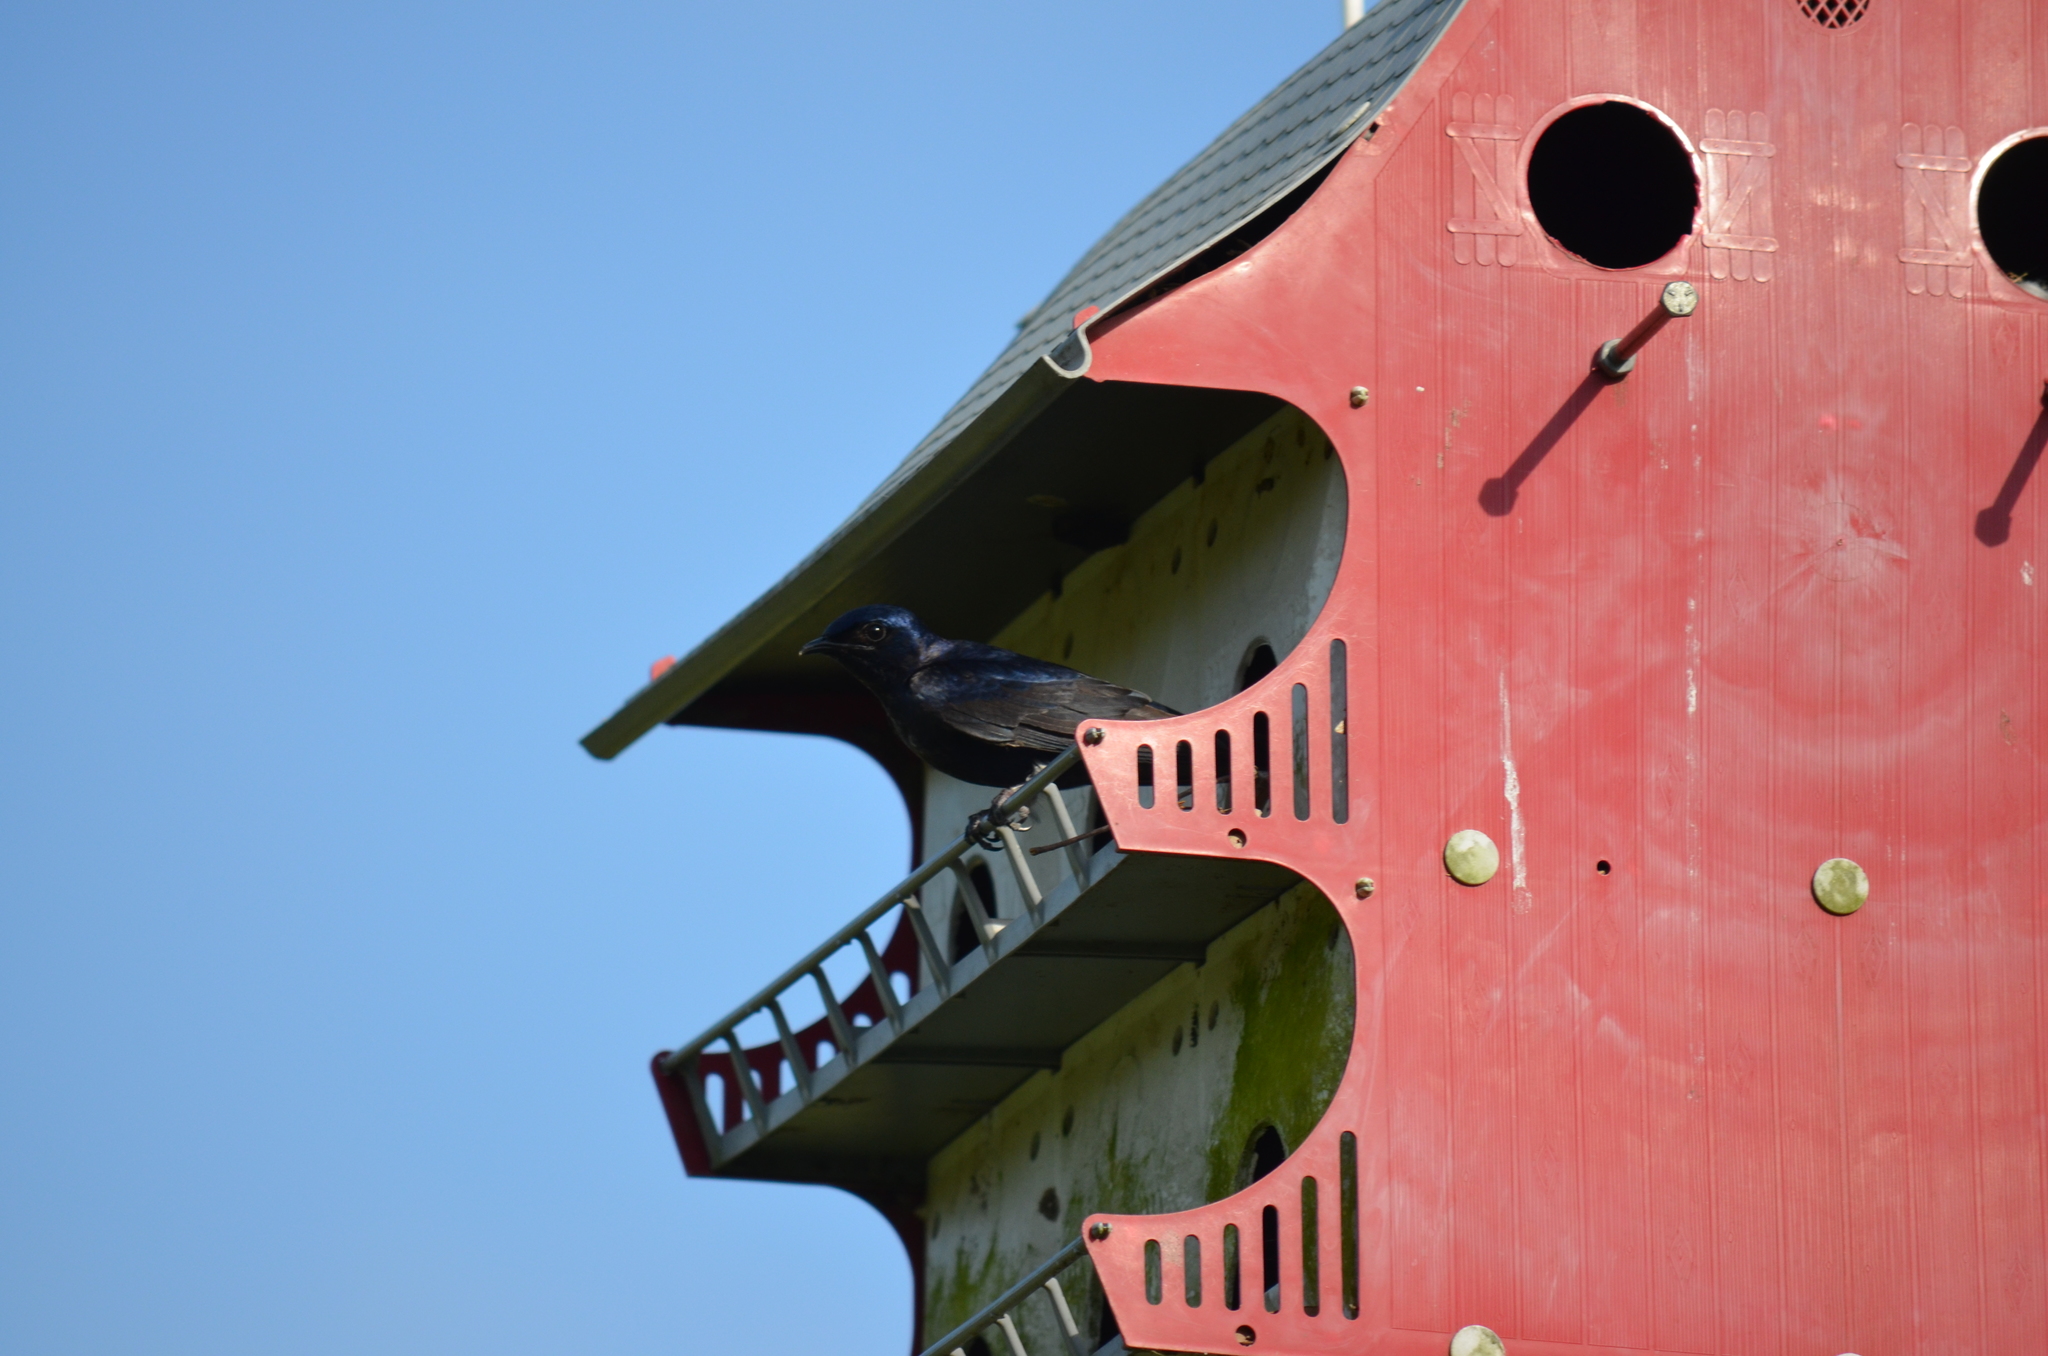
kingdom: Animalia
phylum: Chordata
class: Aves
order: Passeriformes
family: Hirundinidae
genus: Progne
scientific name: Progne subis
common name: Purple martin
